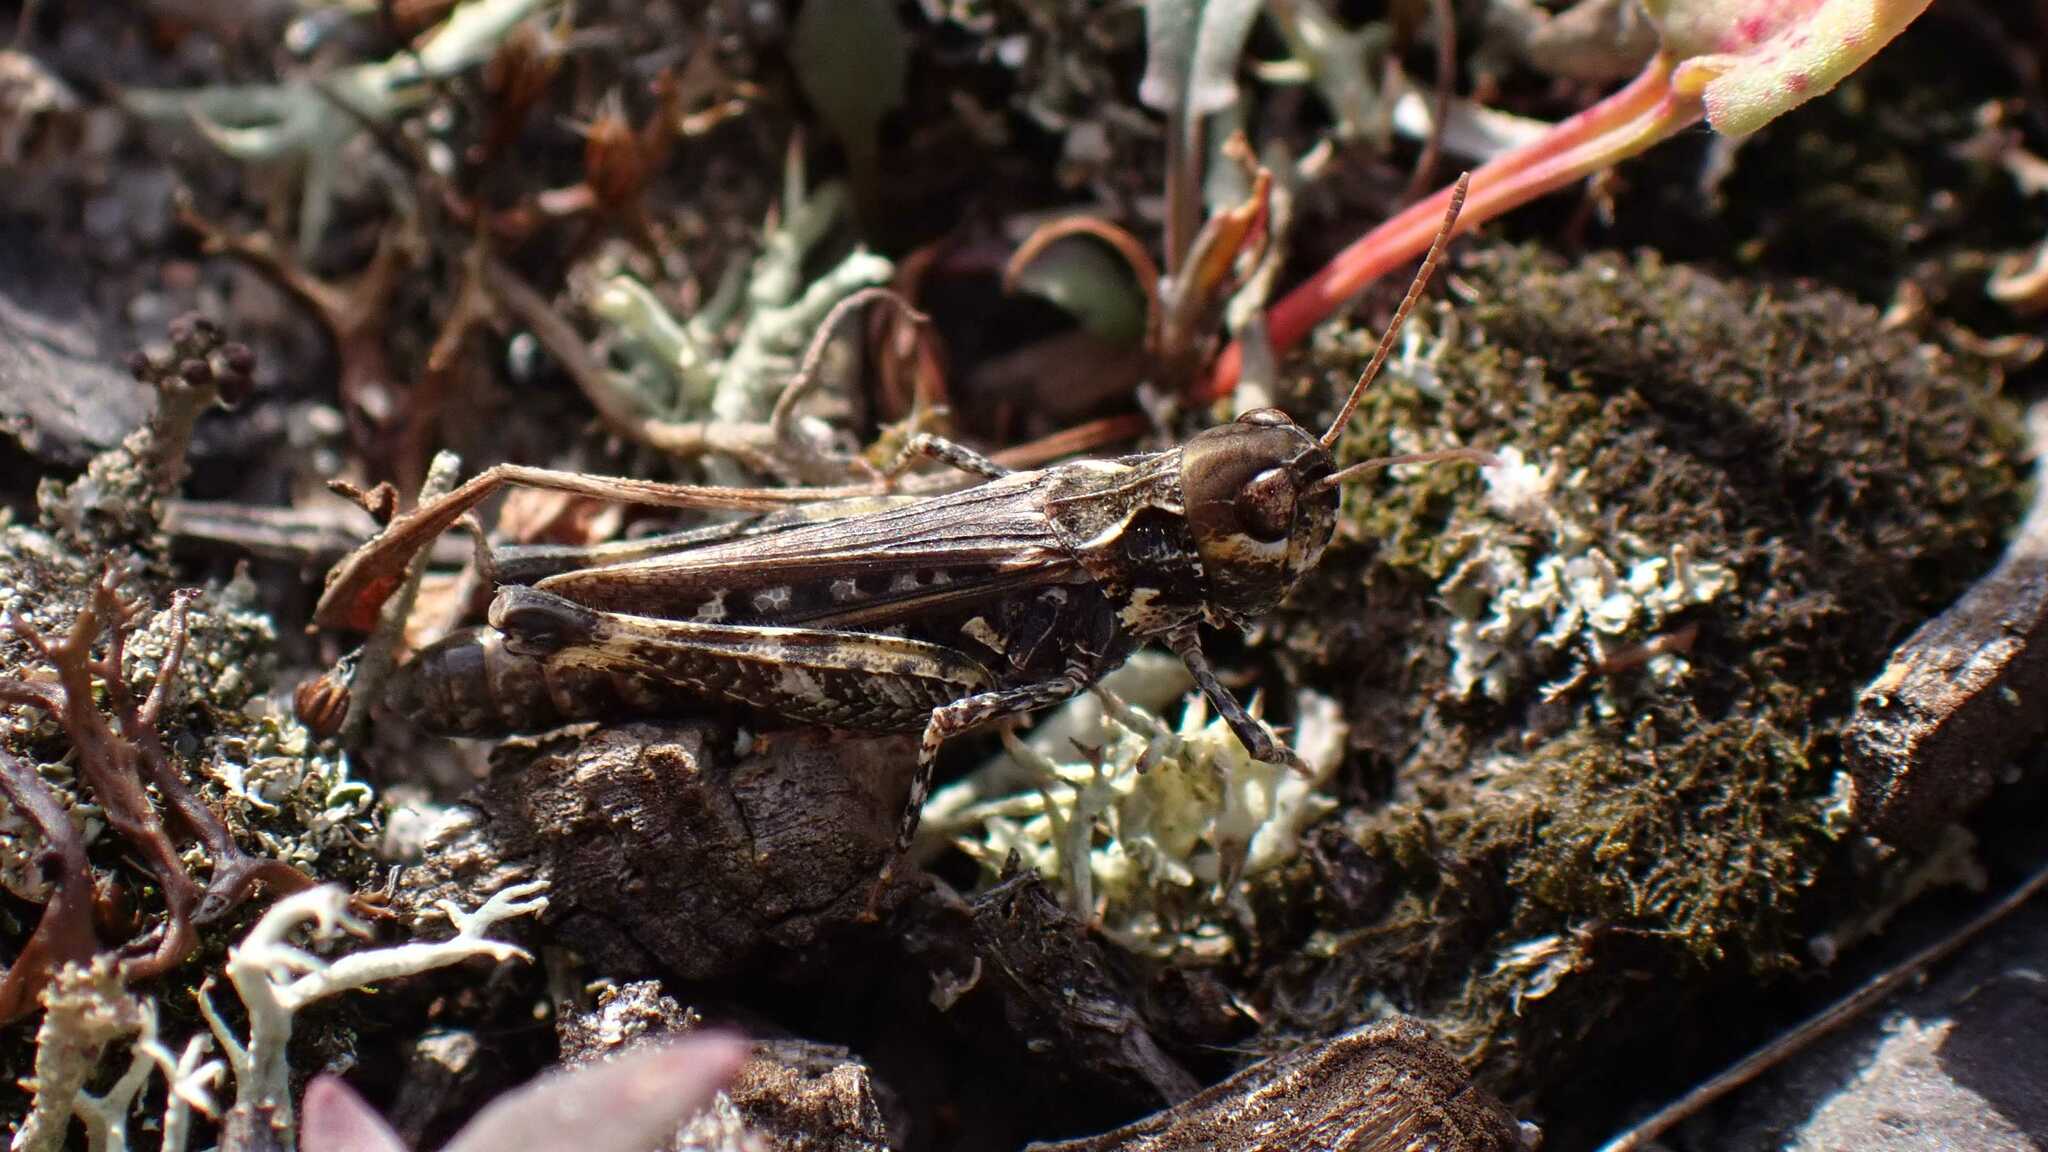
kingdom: Animalia
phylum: Arthropoda
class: Insecta
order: Orthoptera
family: Acrididae
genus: Myrmeleotettix
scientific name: Myrmeleotettix maculatus
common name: Mottled grasshopper
